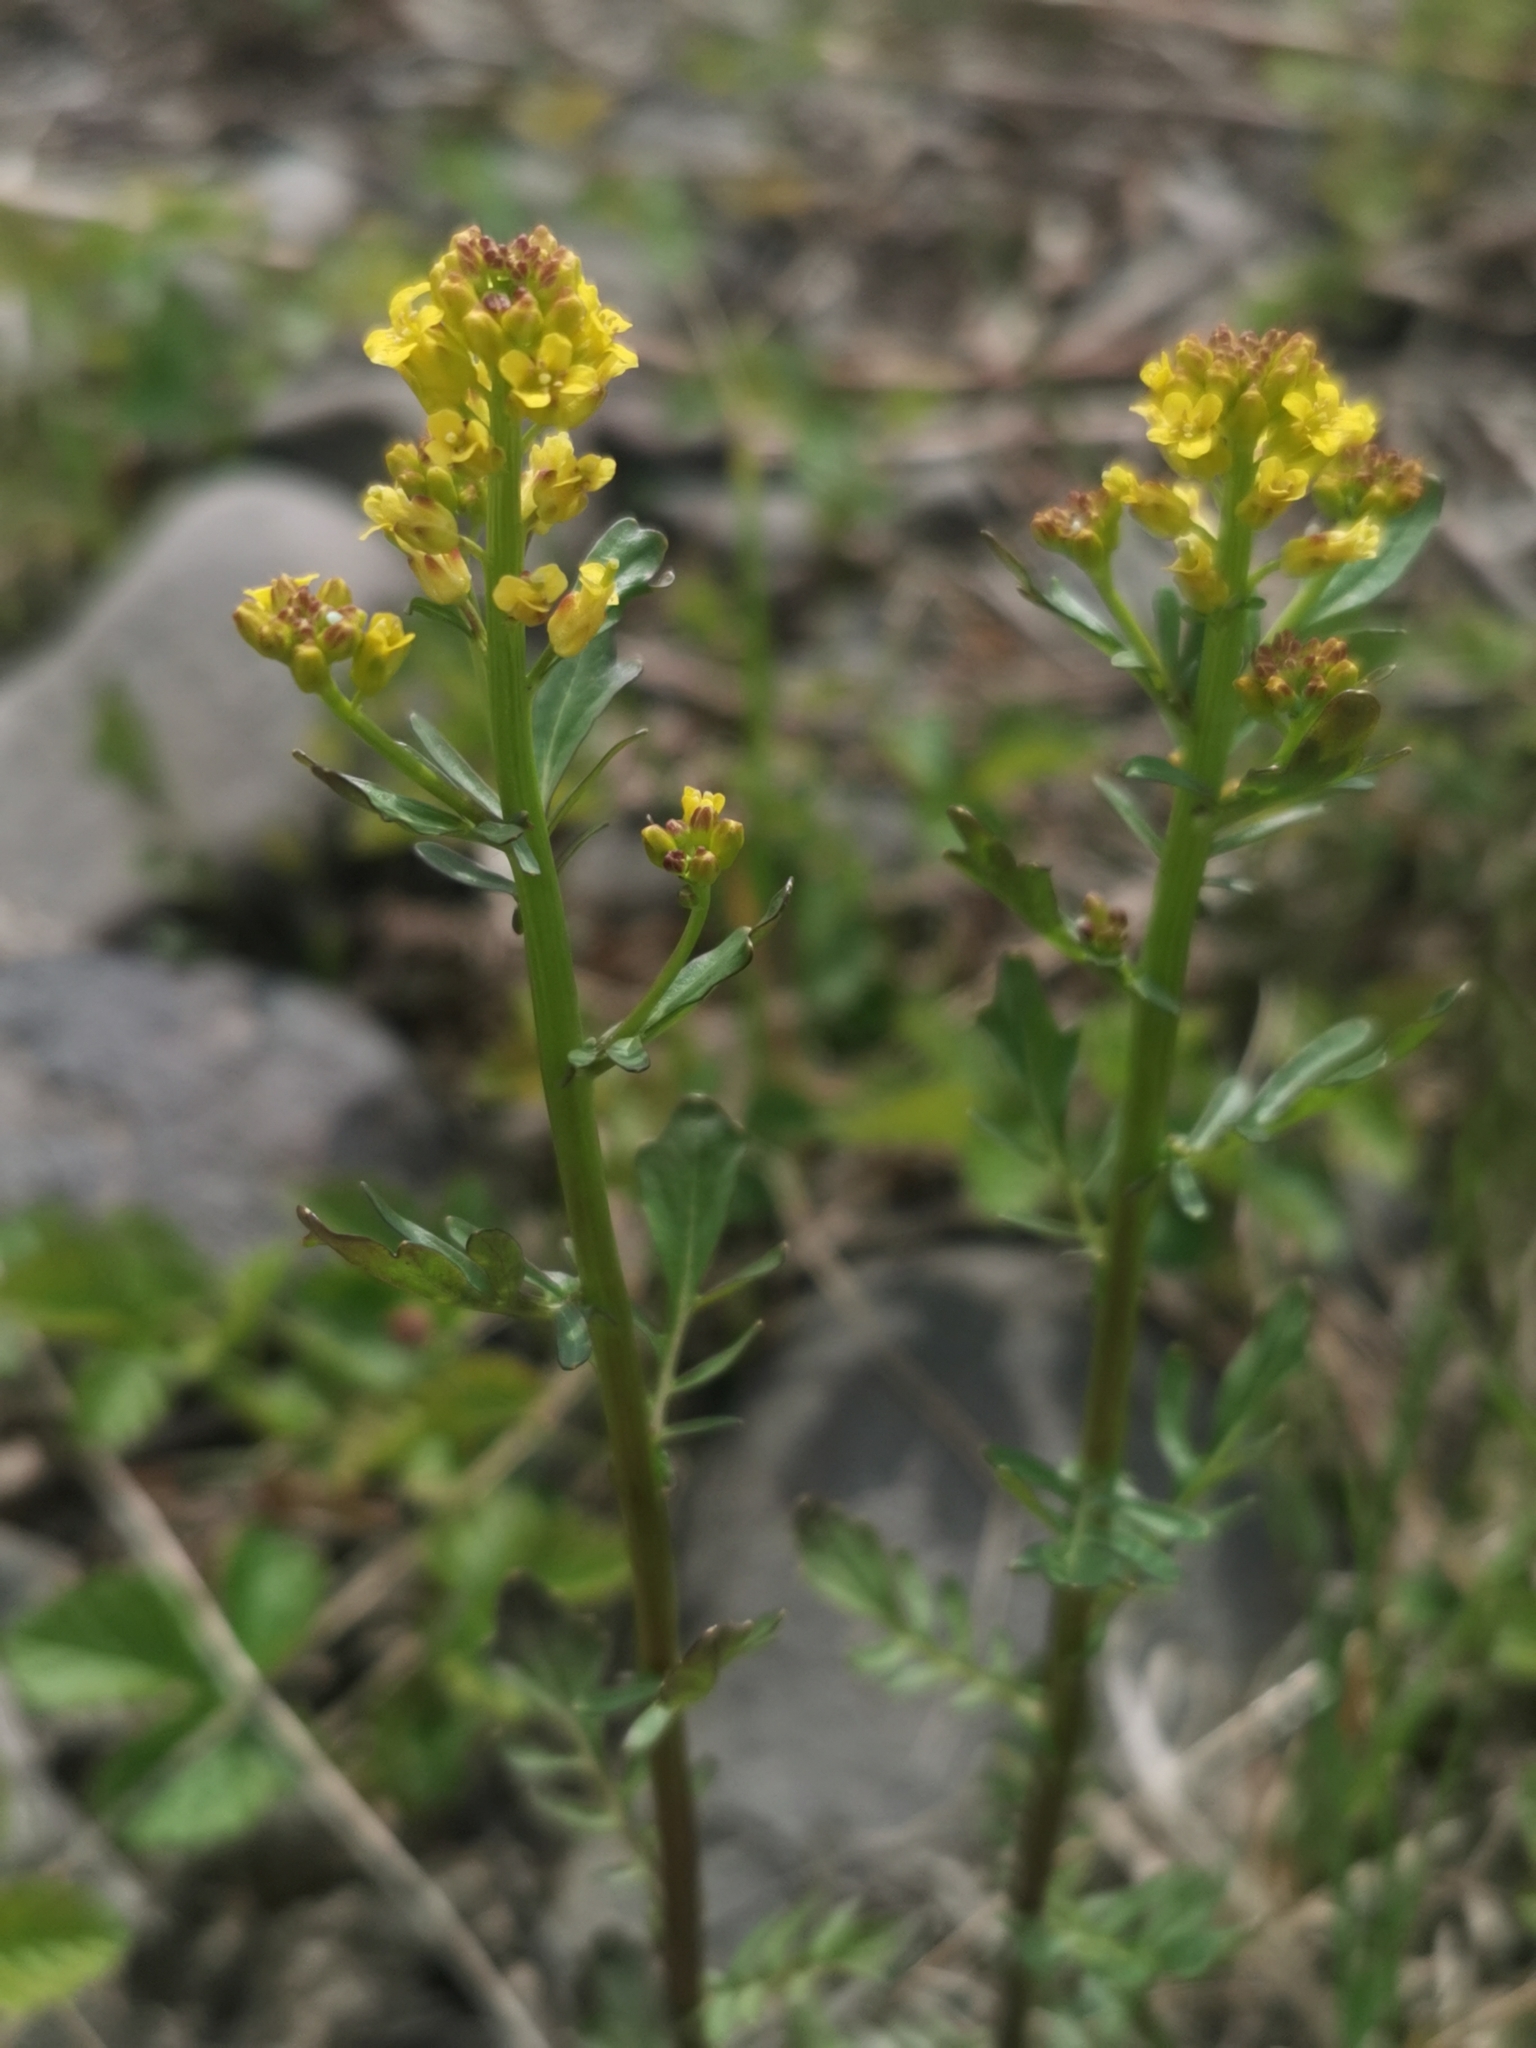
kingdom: Plantae
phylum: Tracheophyta
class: Magnoliopsida
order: Brassicales
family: Brassicaceae
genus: Barbarea
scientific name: Barbarea orthoceras
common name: American wintercress
